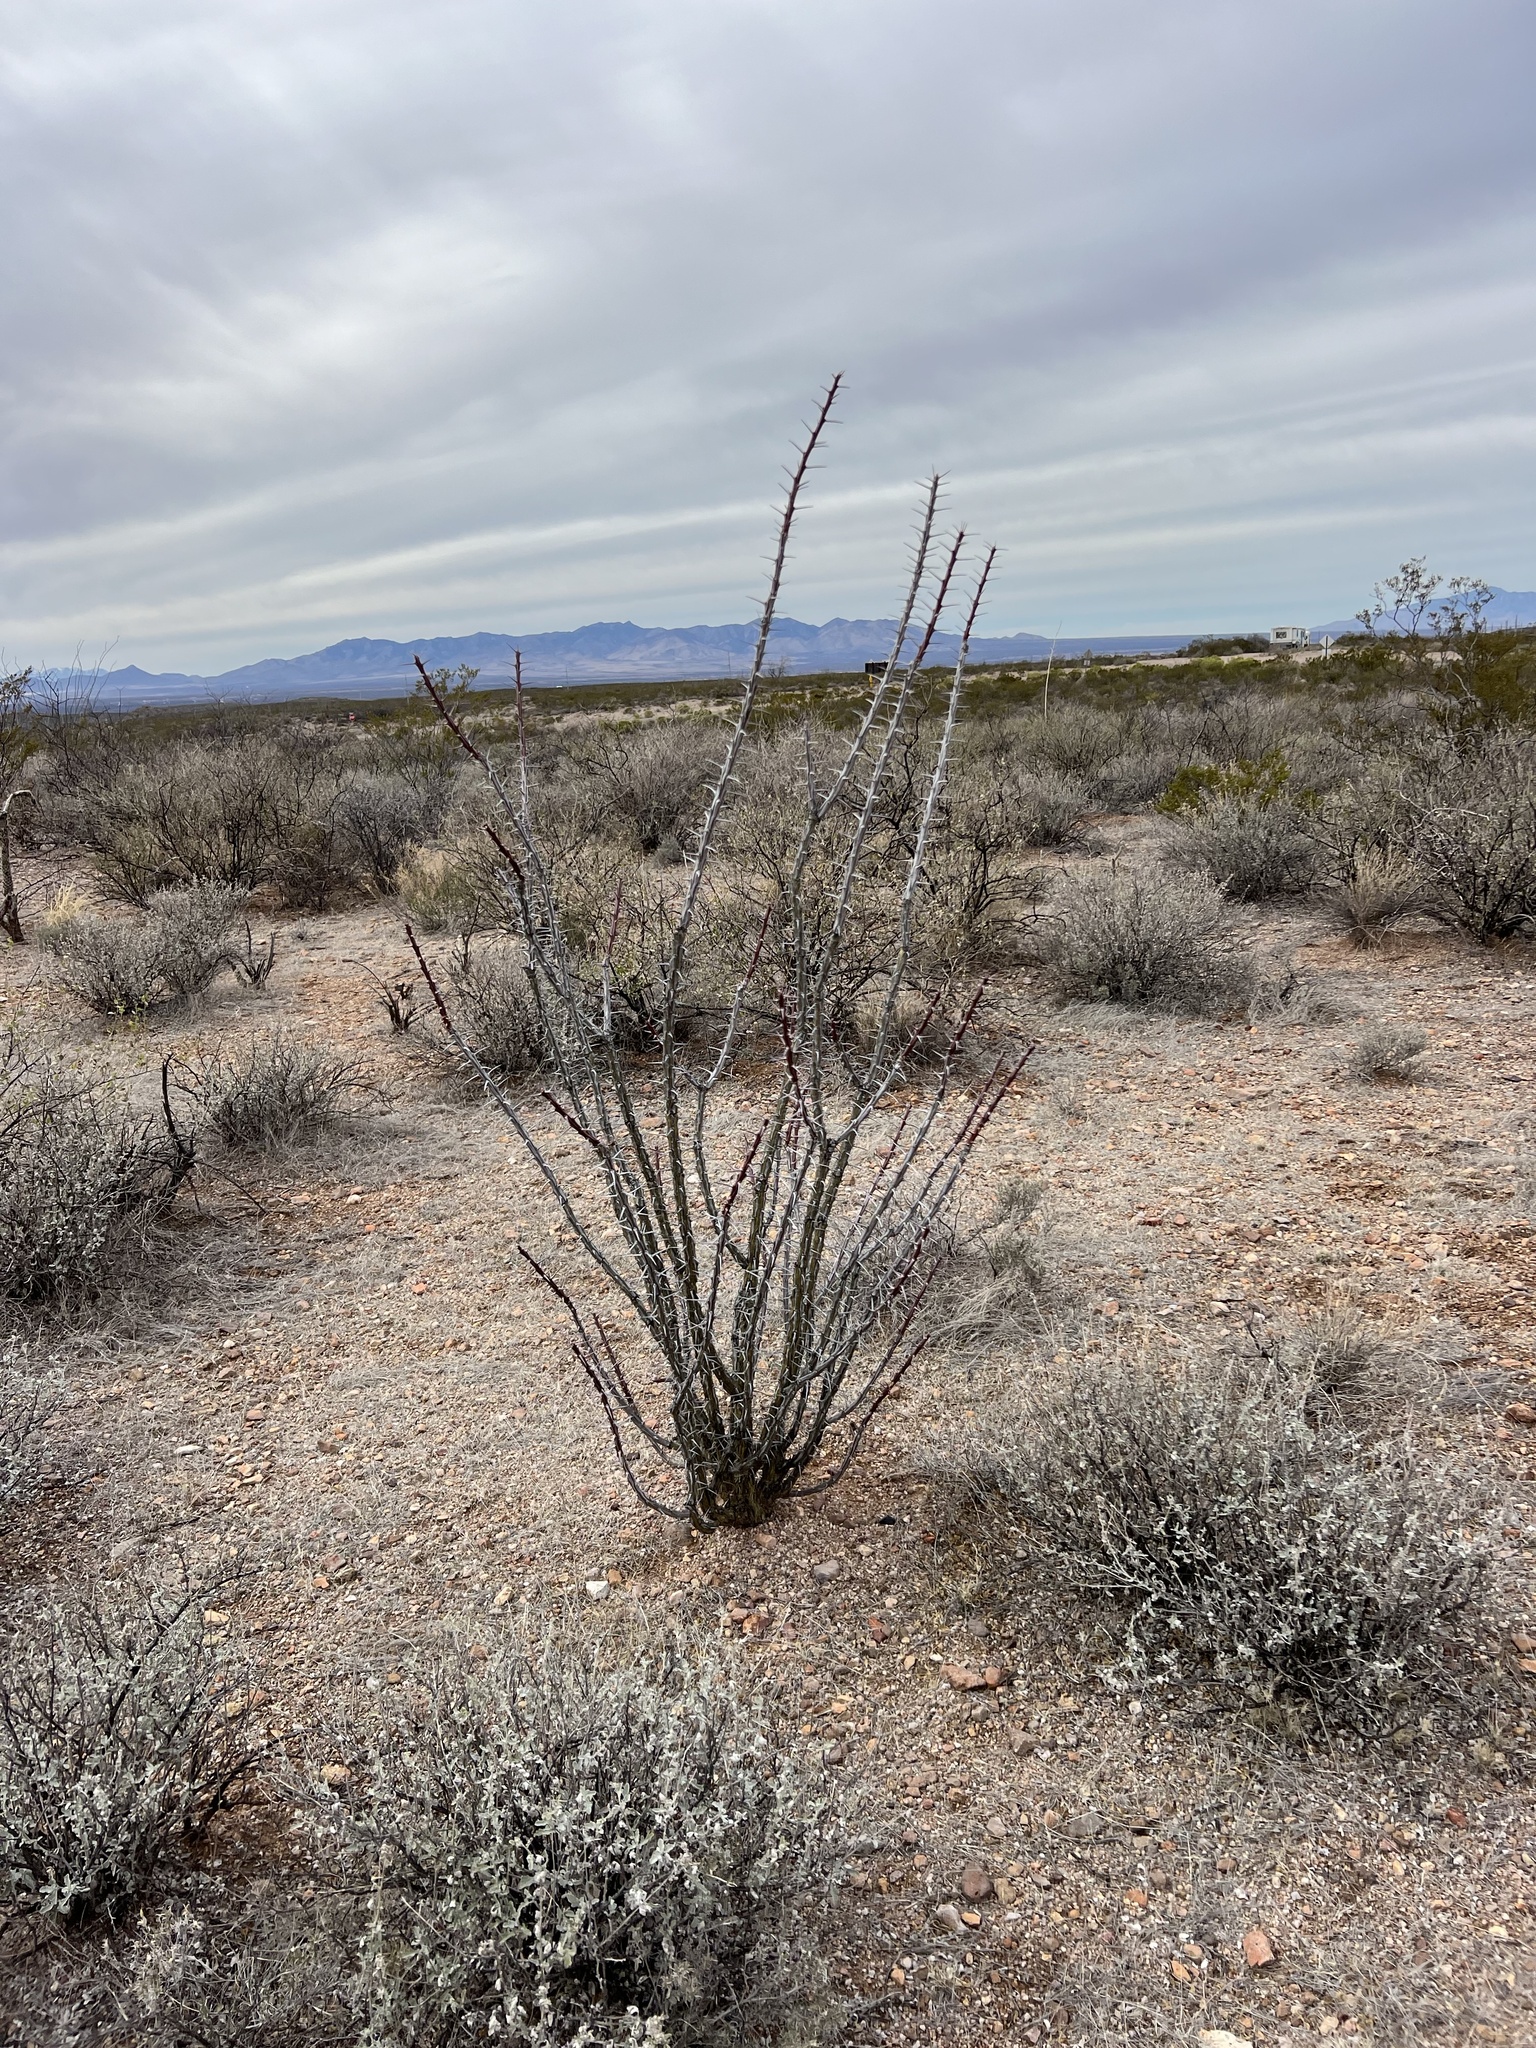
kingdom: Plantae
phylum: Tracheophyta
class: Magnoliopsida
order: Ericales
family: Fouquieriaceae
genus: Fouquieria
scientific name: Fouquieria splendens
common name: Vine-cactus
